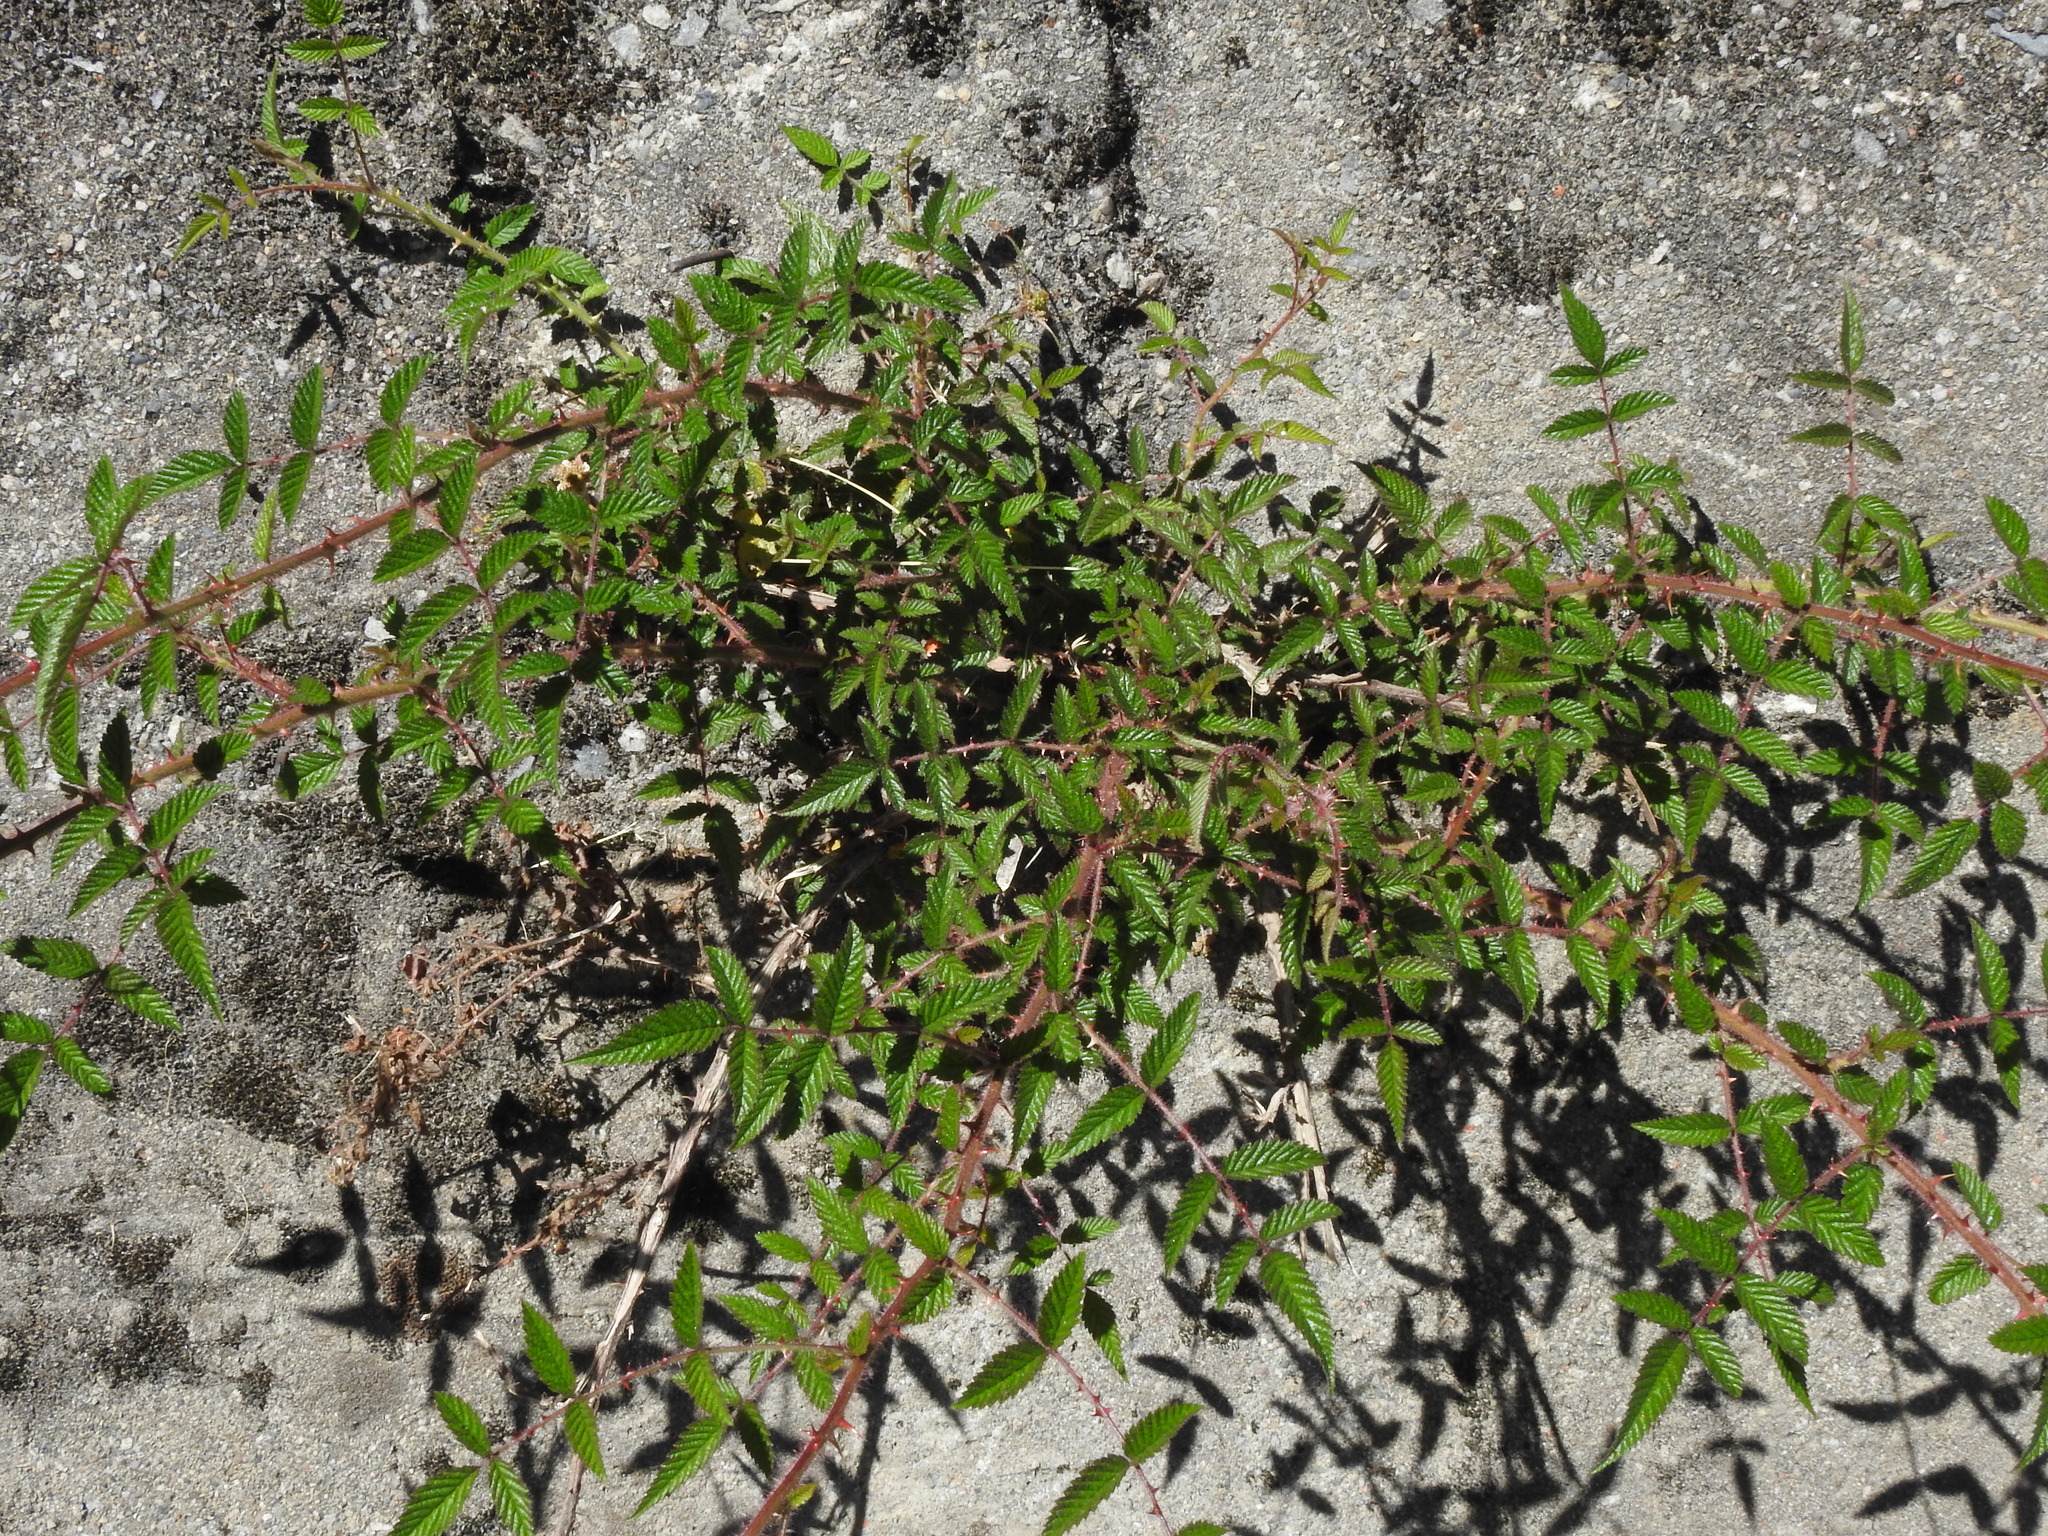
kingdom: Plantae
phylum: Tracheophyta
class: Magnoliopsida
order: Rosales
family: Rosaceae
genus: Rubus
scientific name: Rubus sumatranus
